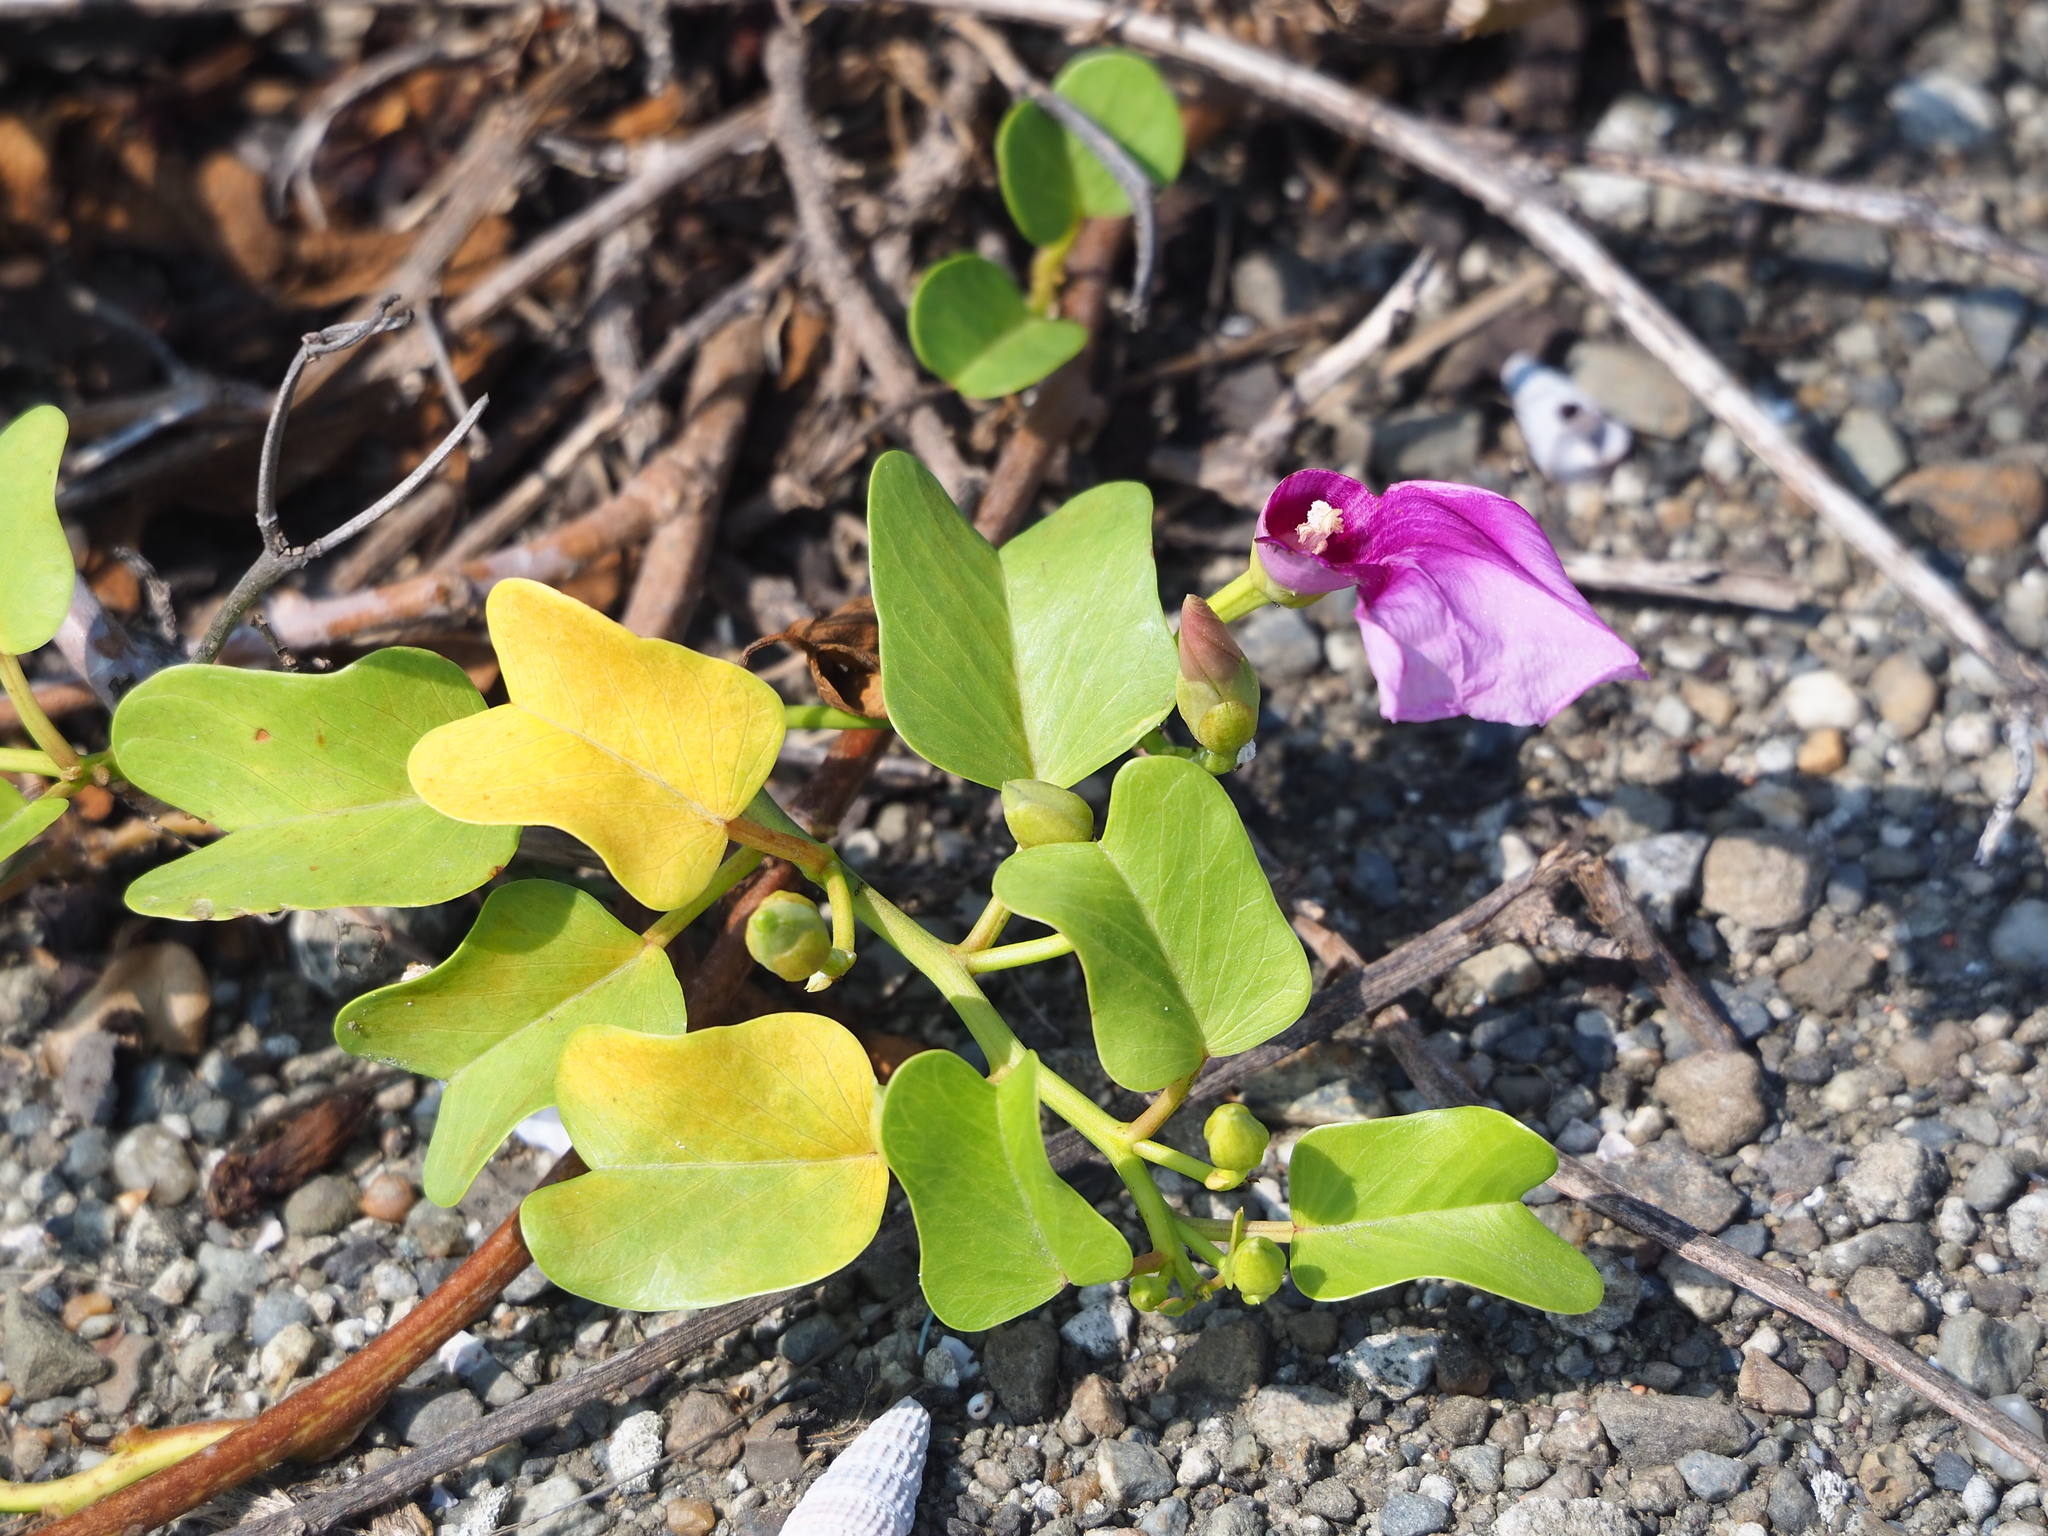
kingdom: Plantae
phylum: Tracheophyta
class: Magnoliopsida
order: Solanales
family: Convolvulaceae
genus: Ipomoea
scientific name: Ipomoea pes-caprae
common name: Beach morning glory
